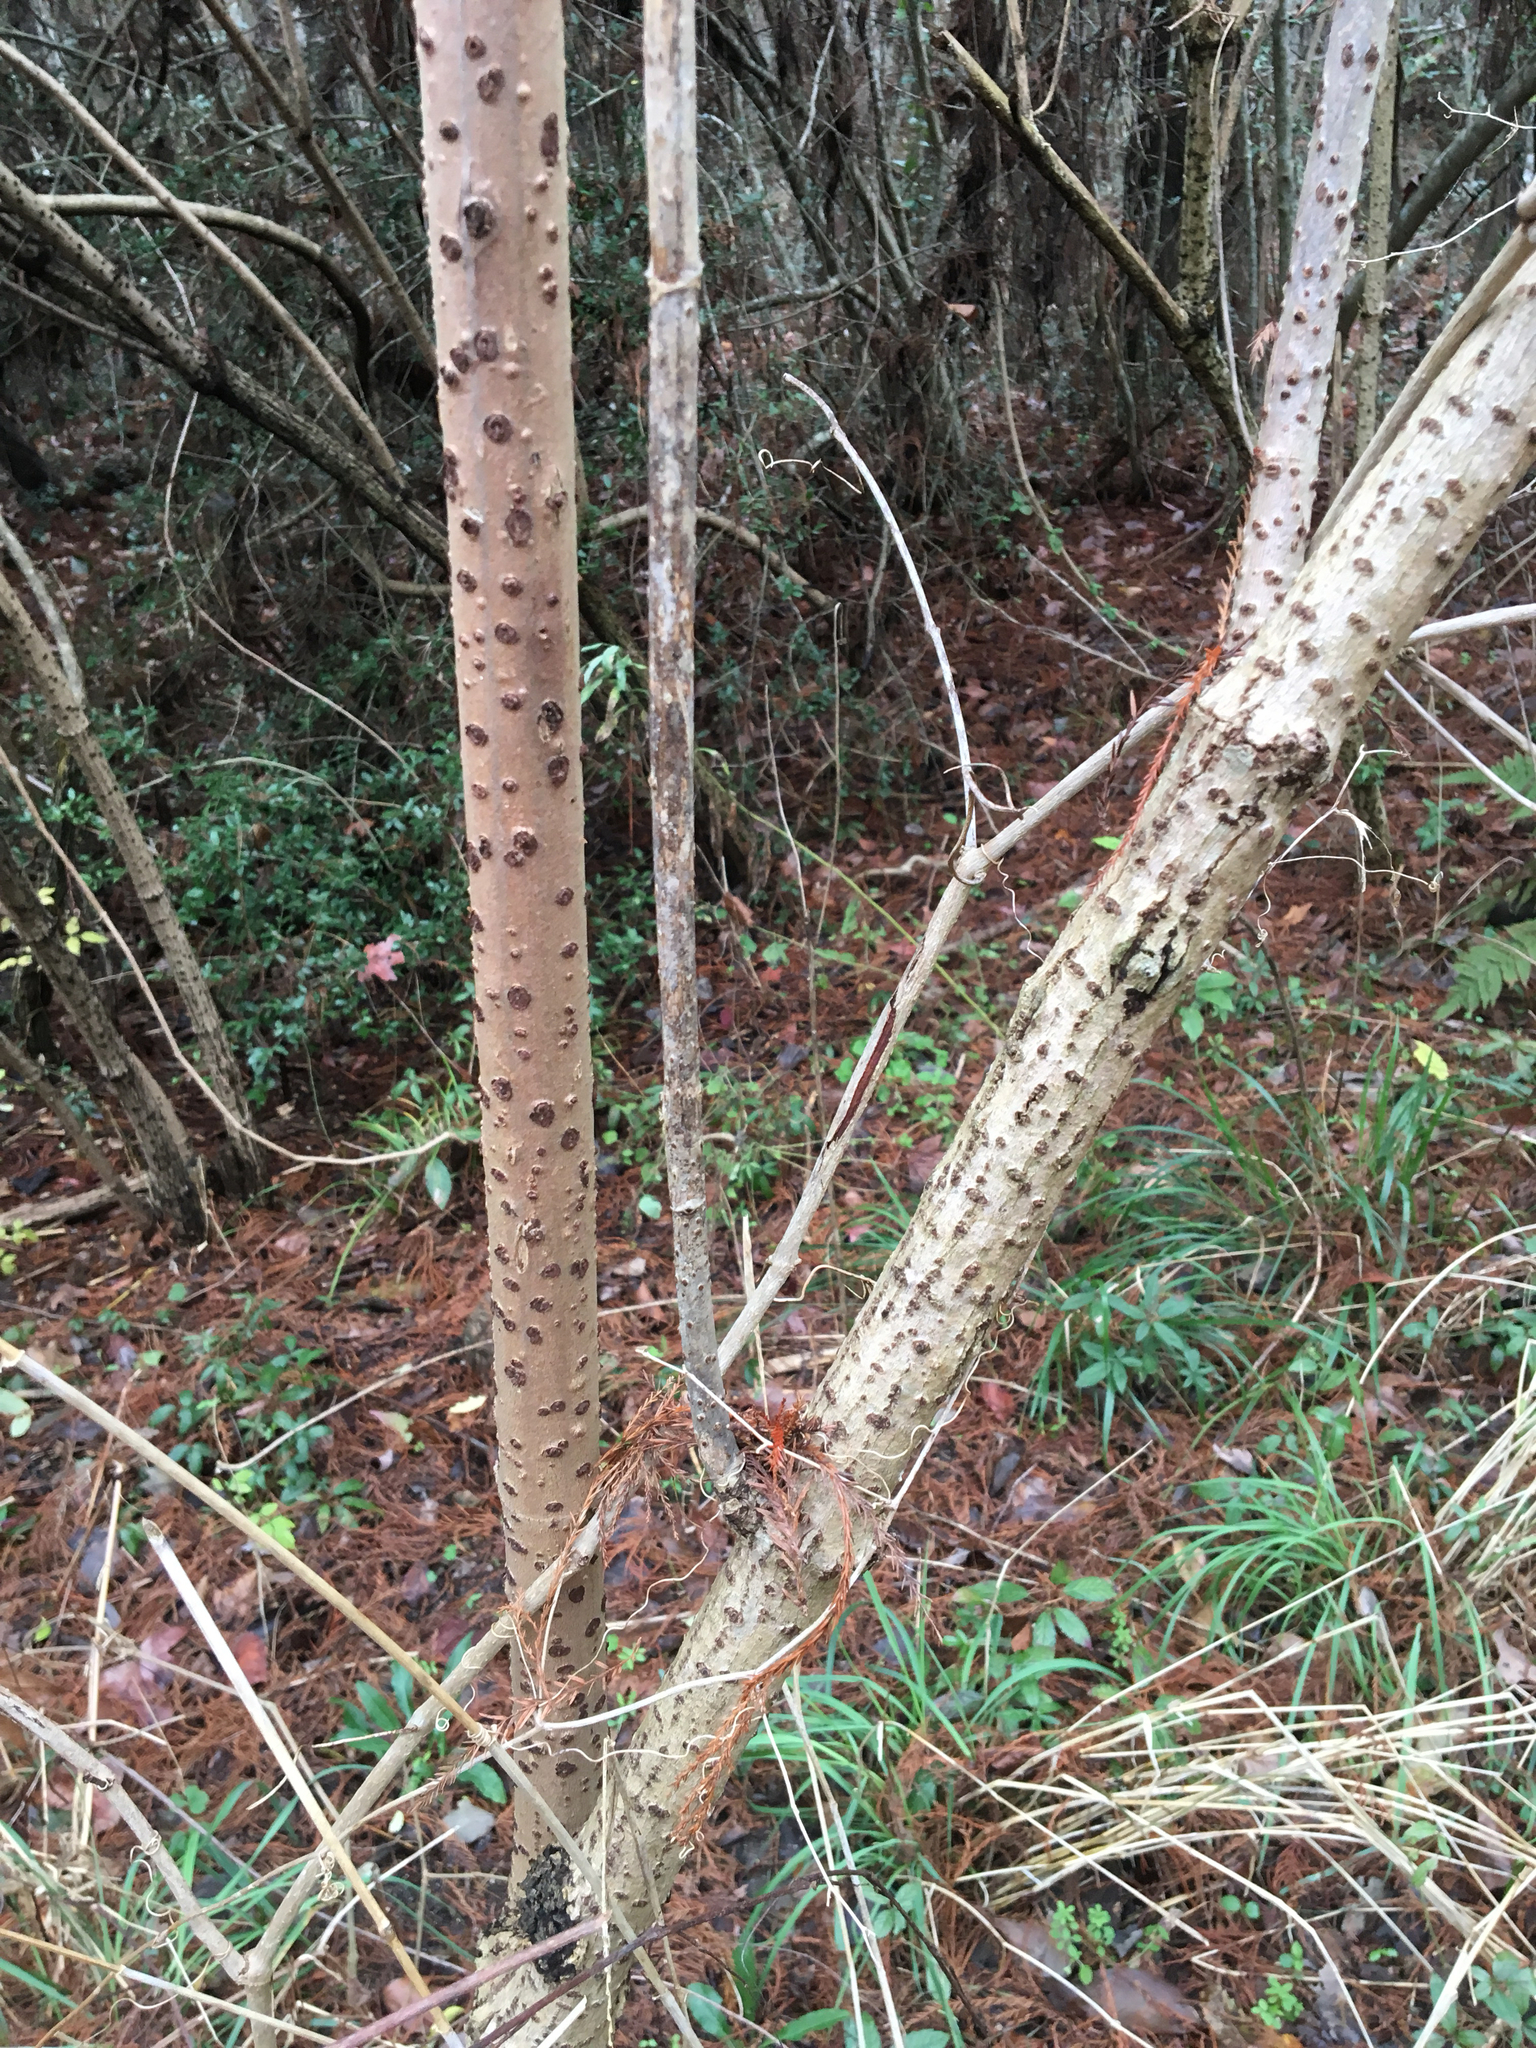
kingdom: Plantae
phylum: Tracheophyta
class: Magnoliopsida
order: Dipsacales
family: Viburnaceae
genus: Sambucus
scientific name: Sambucus canadensis
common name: American elder
